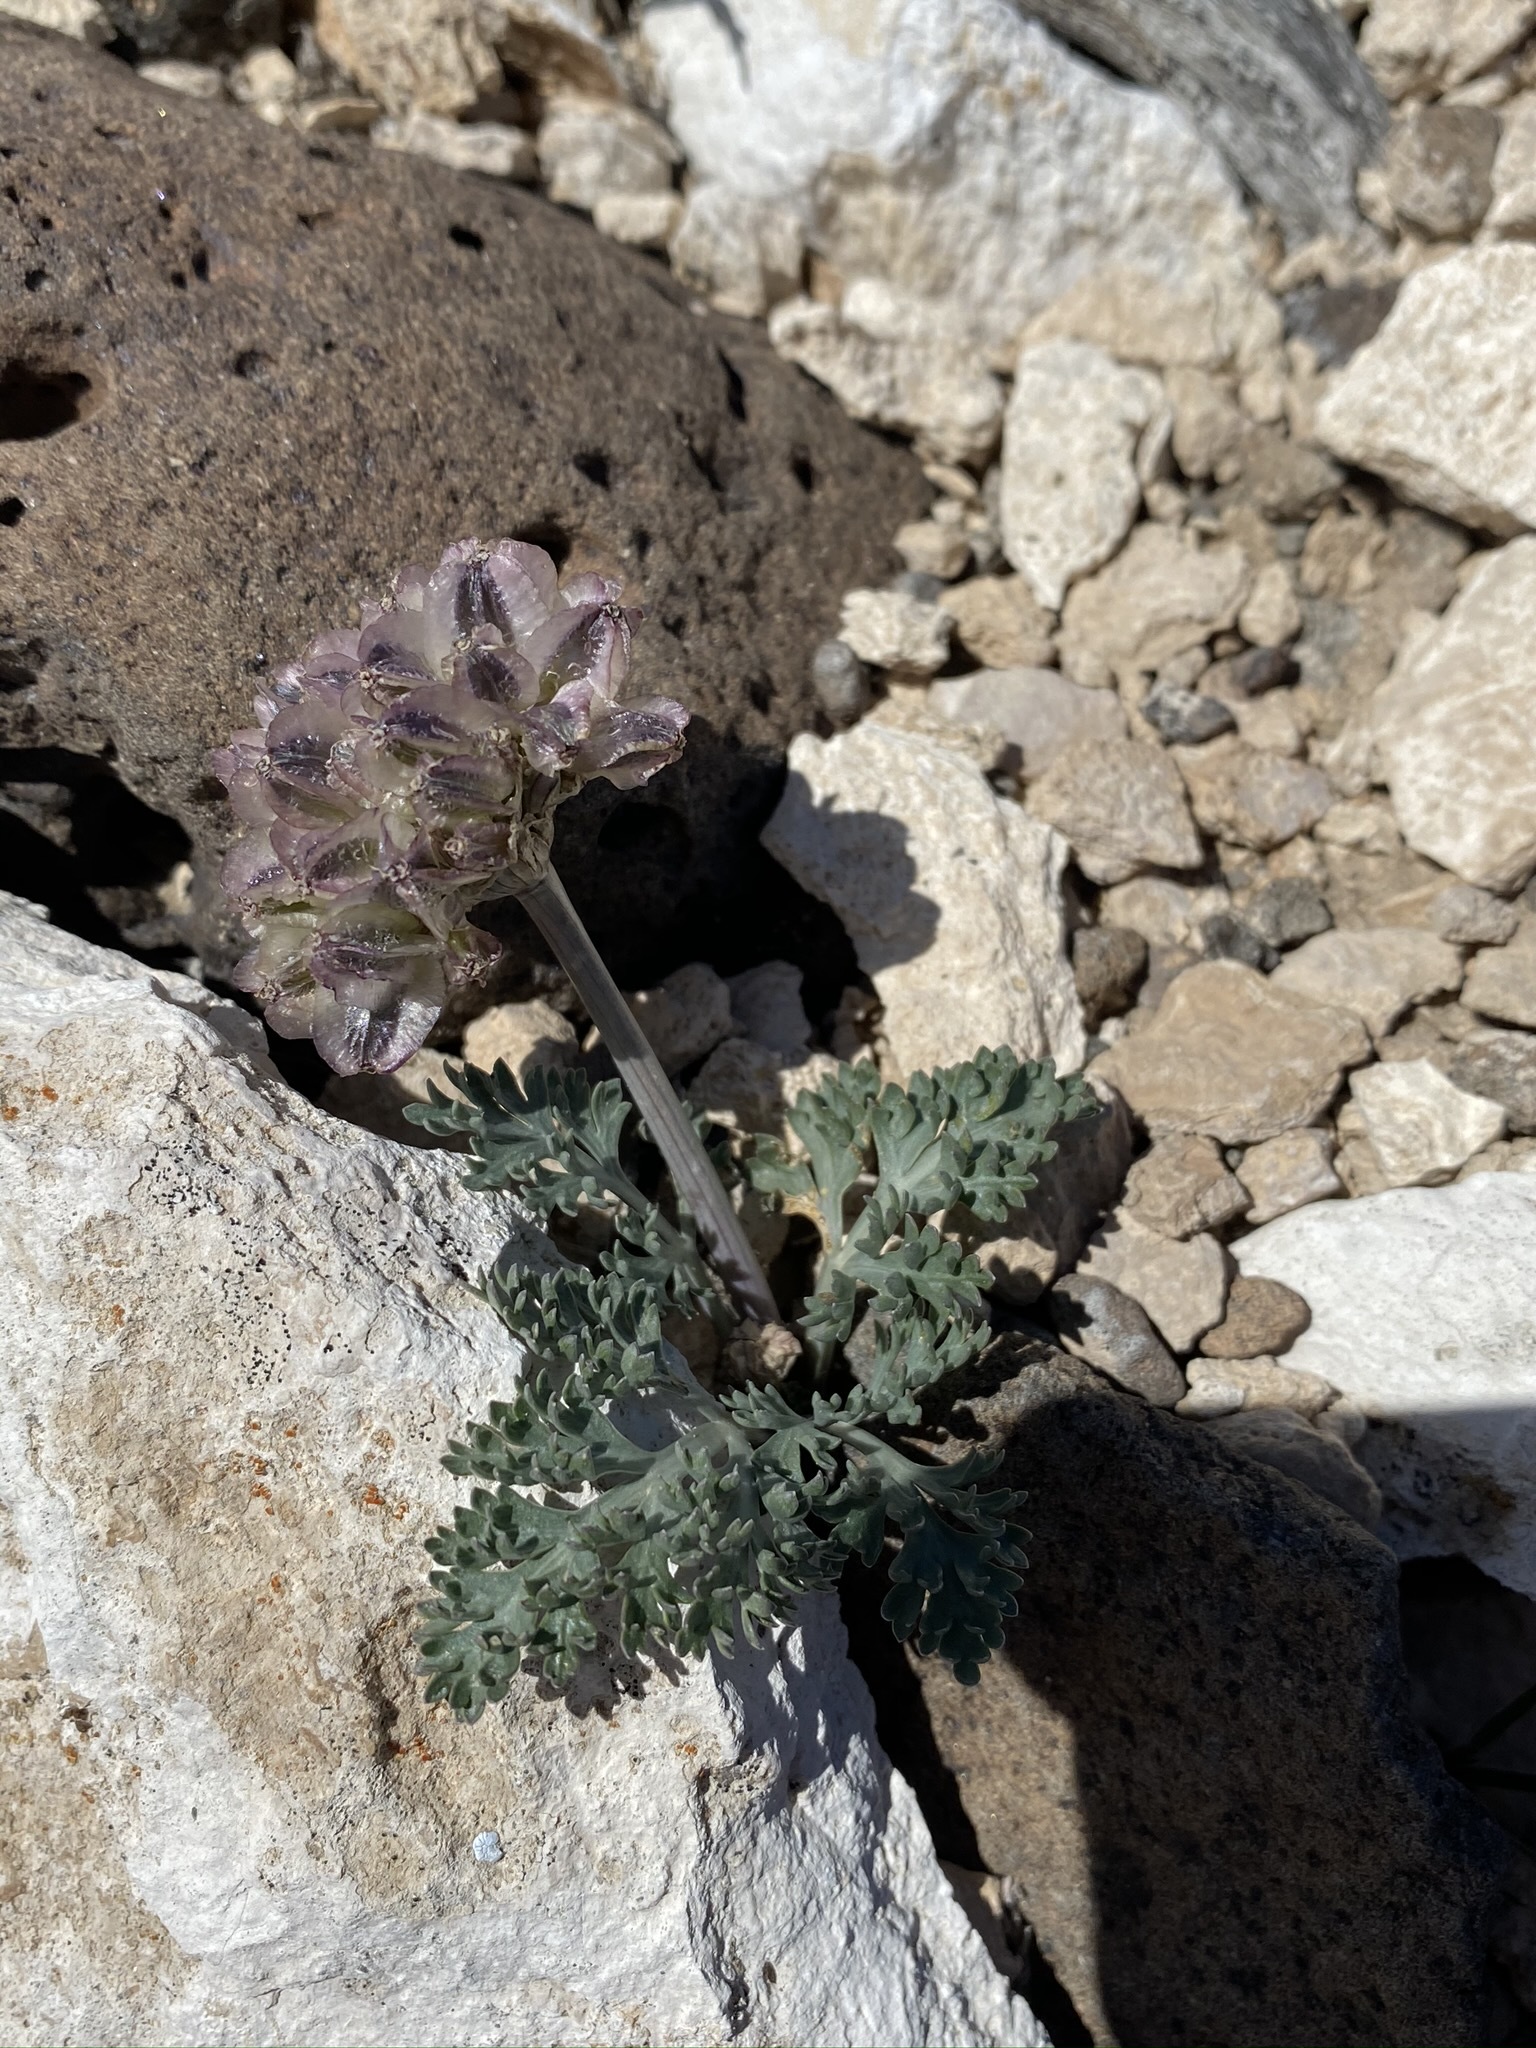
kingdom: Plantae
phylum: Tracheophyta
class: Magnoliopsida
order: Apiales
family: Apiaceae
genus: Vesper
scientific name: Vesper purpurascens
